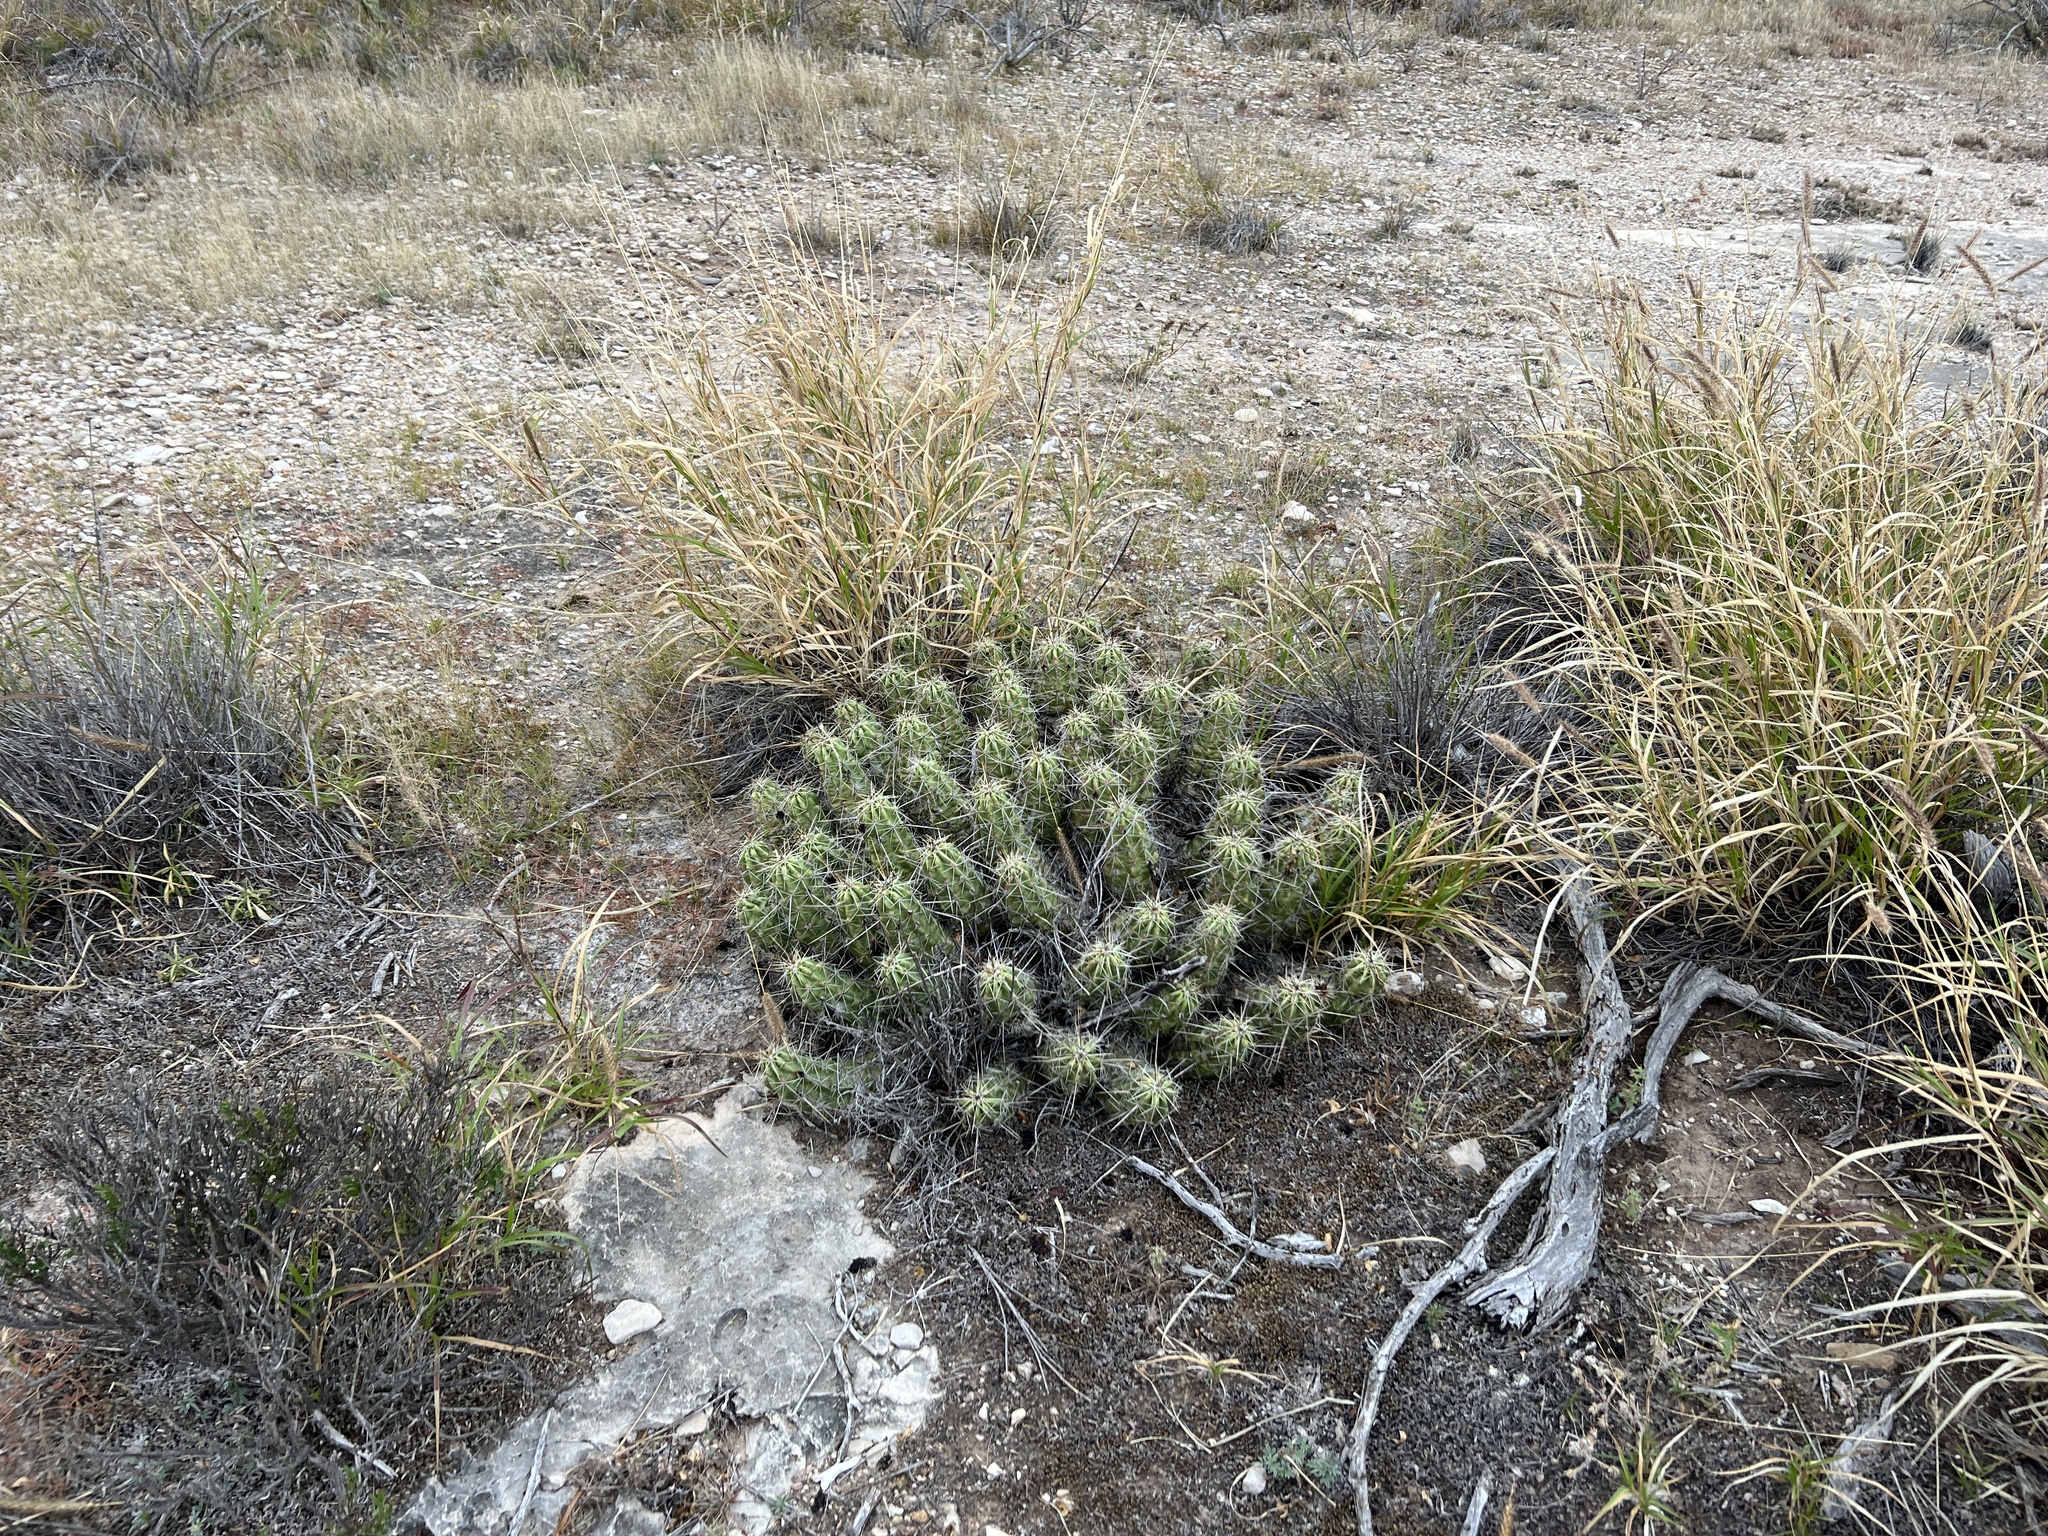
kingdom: Plantae
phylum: Tracheophyta
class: Magnoliopsida
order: Caryophyllales
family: Cactaceae
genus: Echinocereus
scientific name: Echinocereus enneacanthus
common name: Pitaya
